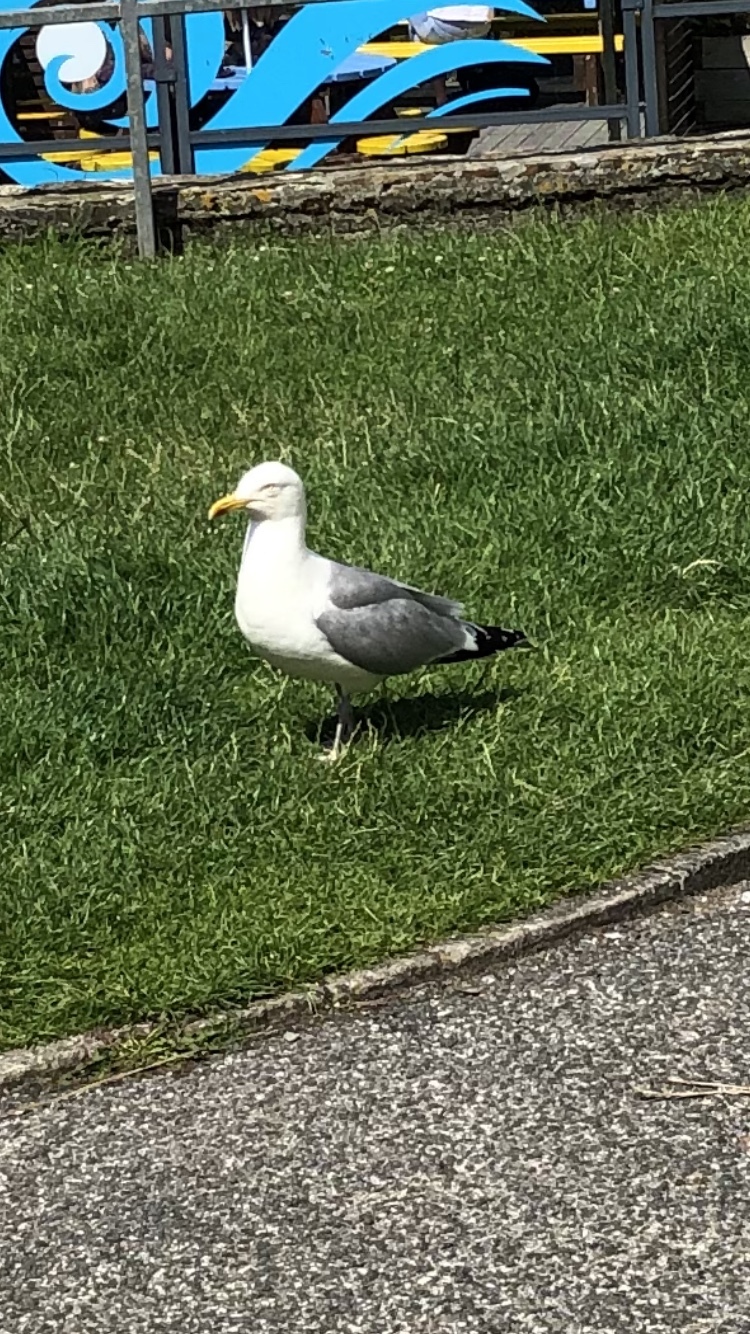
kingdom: Animalia
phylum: Chordata
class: Aves
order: Charadriiformes
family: Laridae
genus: Larus
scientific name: Larus argentatus
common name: Herring gull
